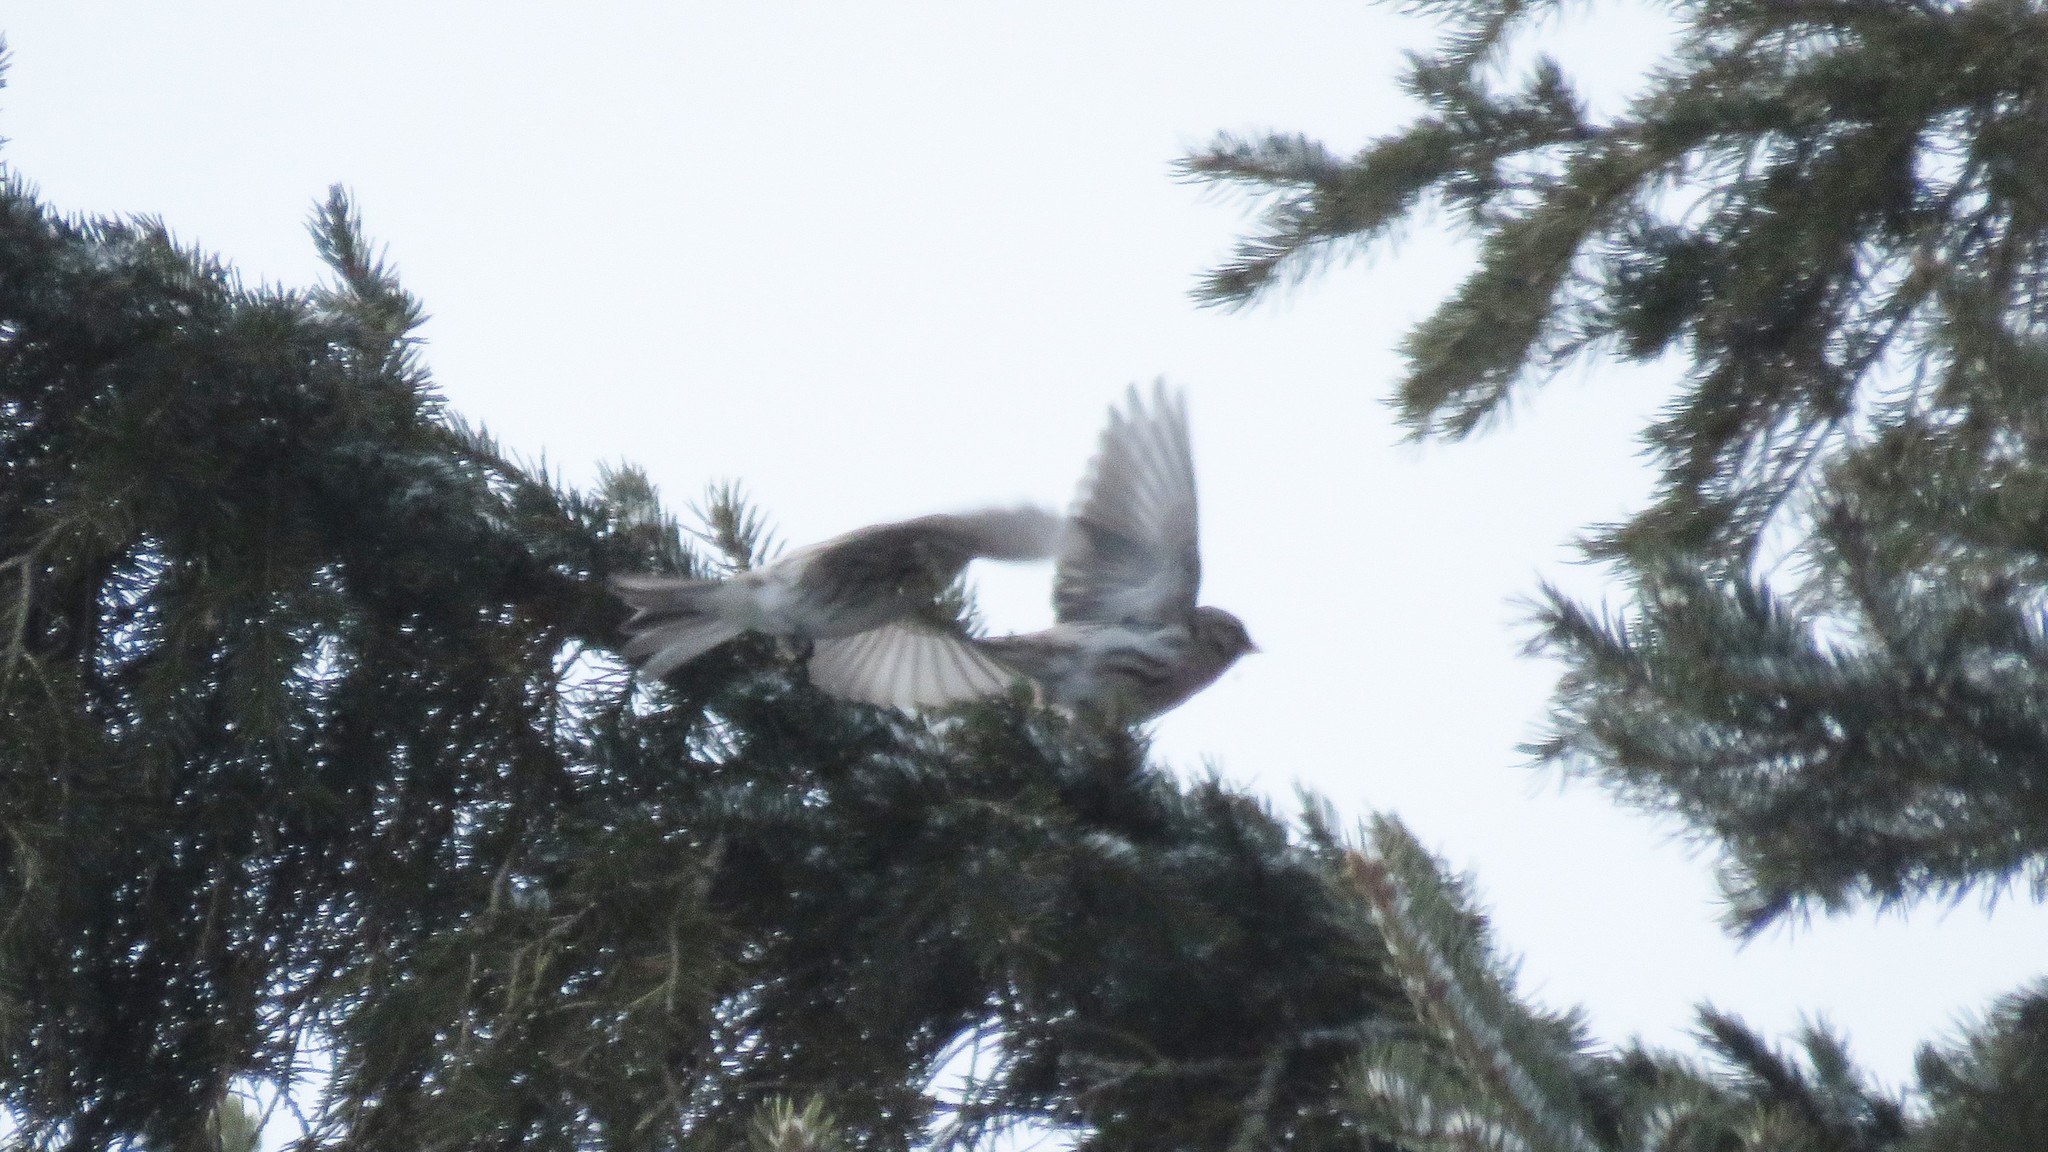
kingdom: Animalia
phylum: Chordata
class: Aves
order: Passeriformes
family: Fringillidae
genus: Acanthis
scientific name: Acanthis flammea
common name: Common redpoll
